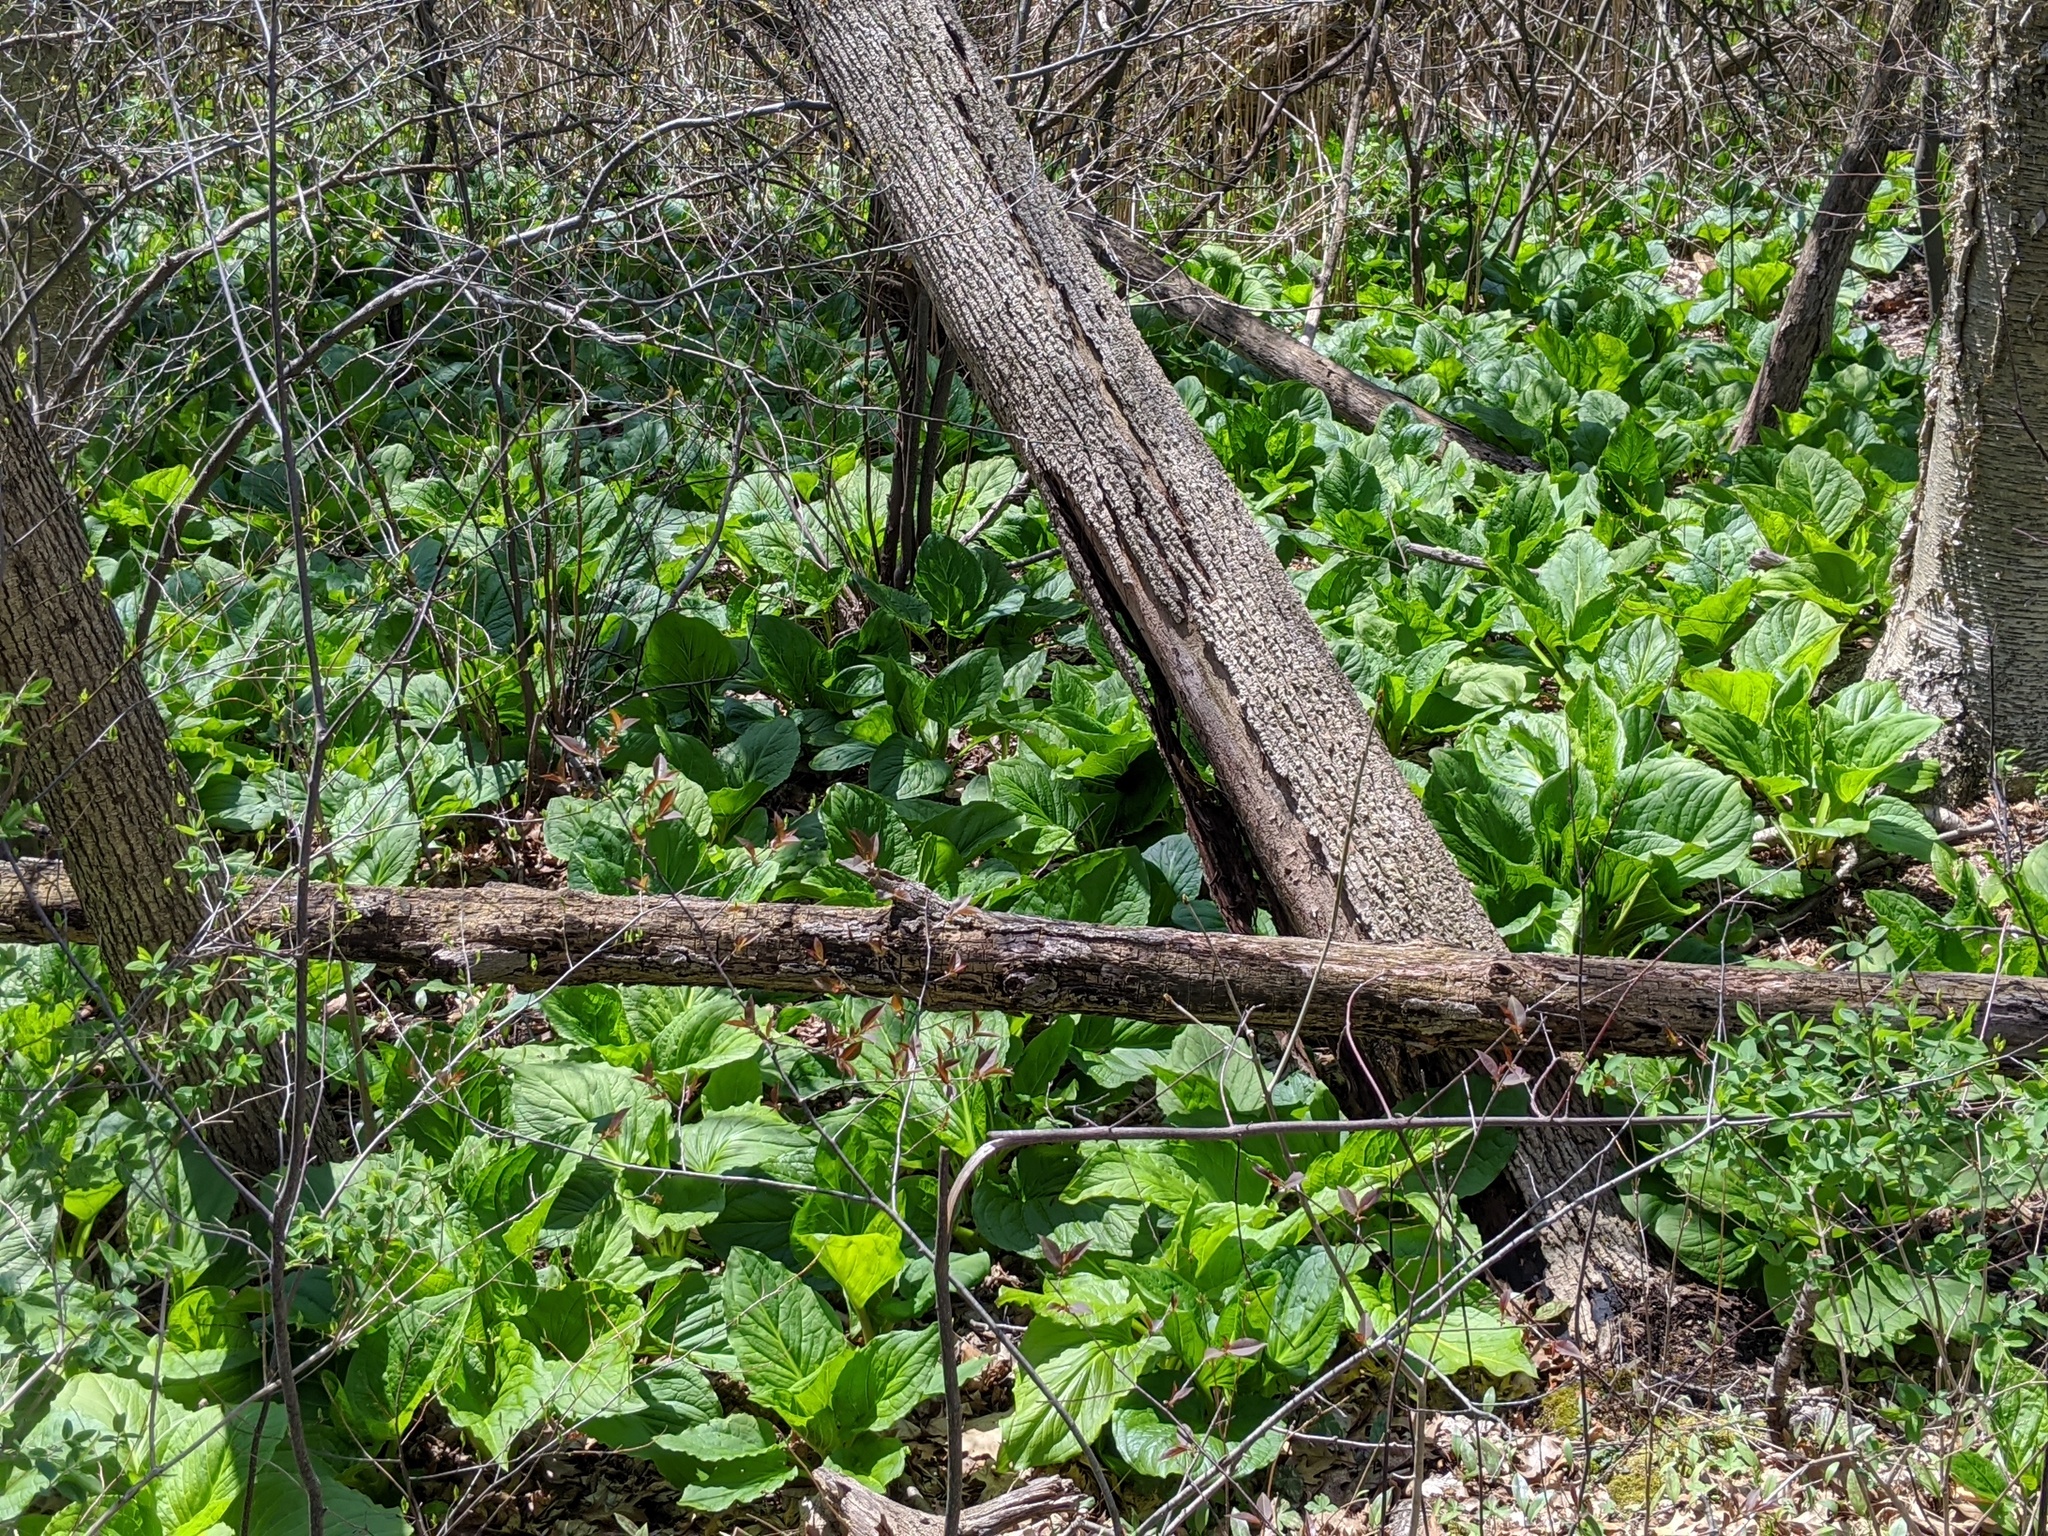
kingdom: Plantae
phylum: Tracheophyta
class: Liliopsida
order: Alismatales
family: Araceae
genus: Symplocarpus
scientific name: Symplocarpus foetidus
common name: Eastern skunk cabbage
